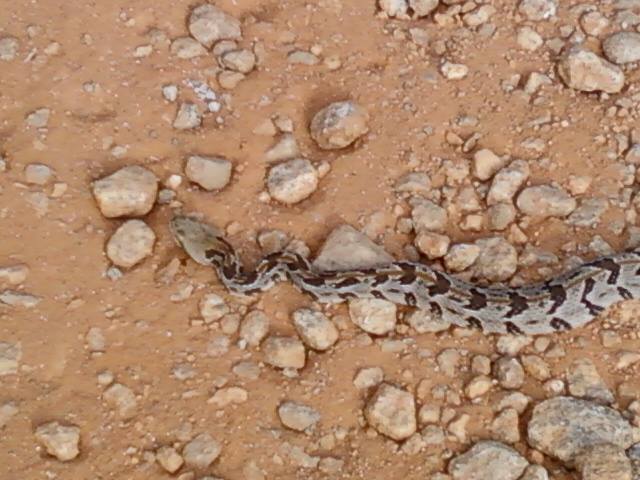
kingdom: Animalia
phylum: Chordata
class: Squamata
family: Viperidae
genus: Crotalus
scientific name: Crotalus horridus
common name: Timber rattlesnake
